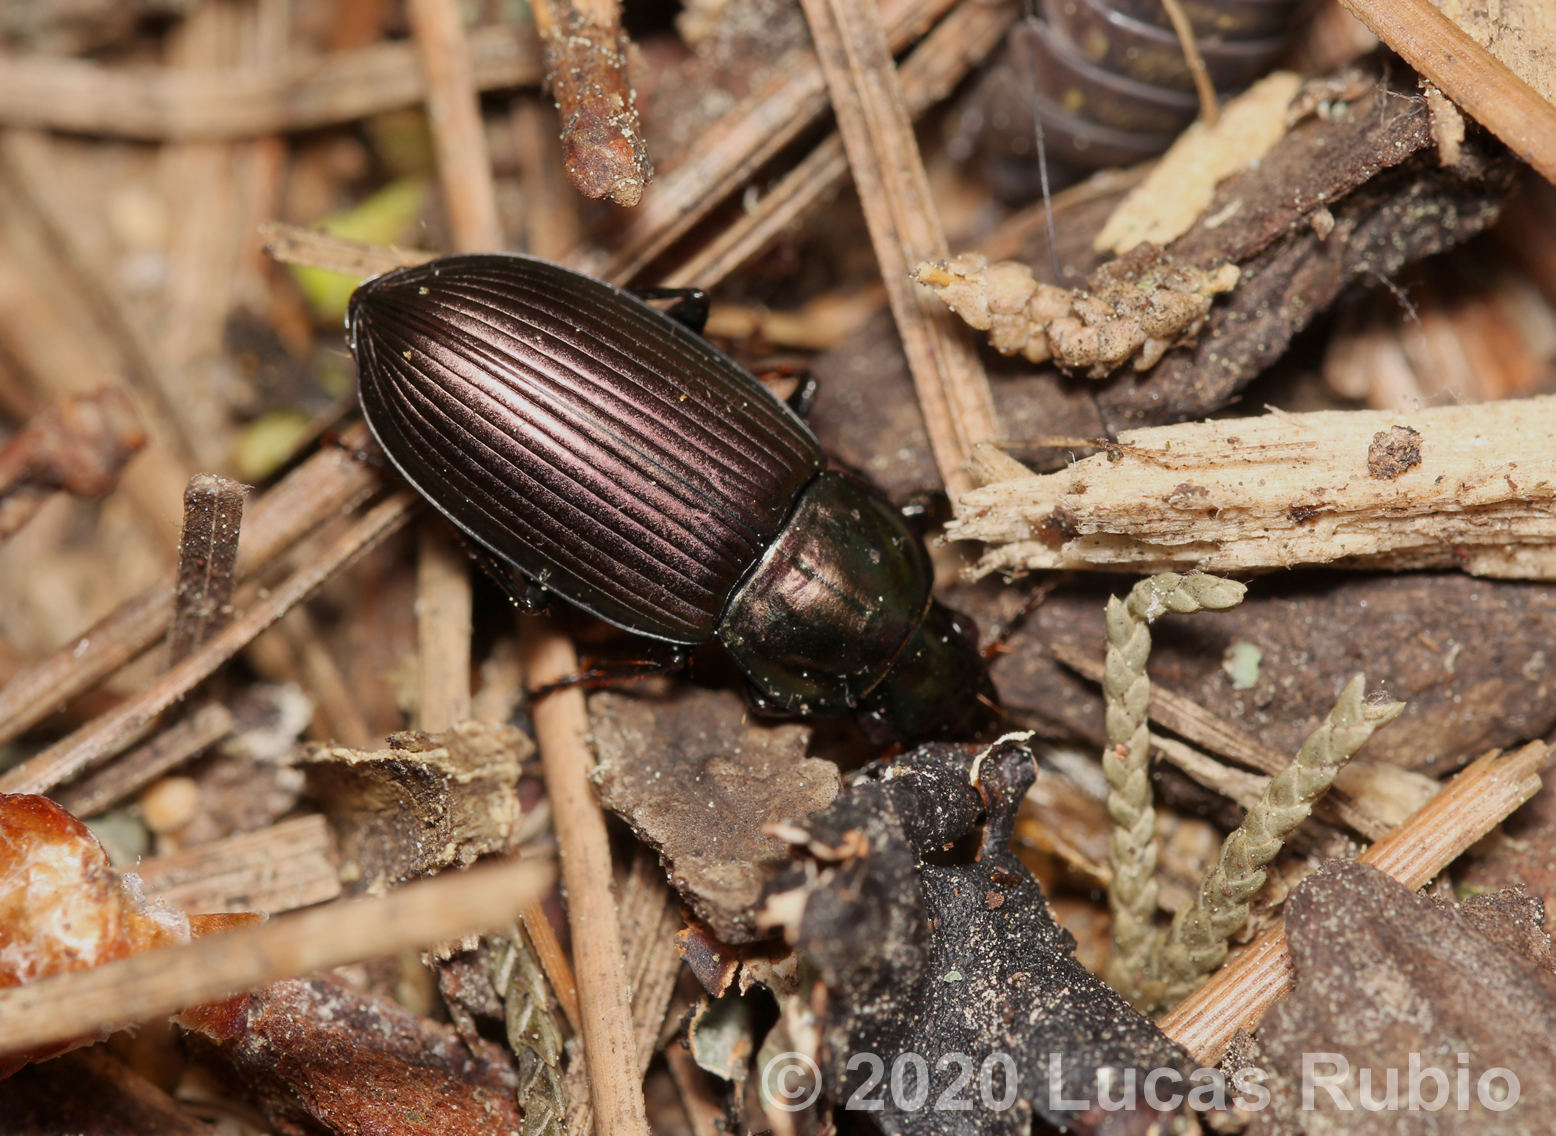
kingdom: Animalia
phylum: Arthropoda
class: Insecta
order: Coleoptera
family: Carabidae
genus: Notiobia
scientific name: Notiobia cupripennis
